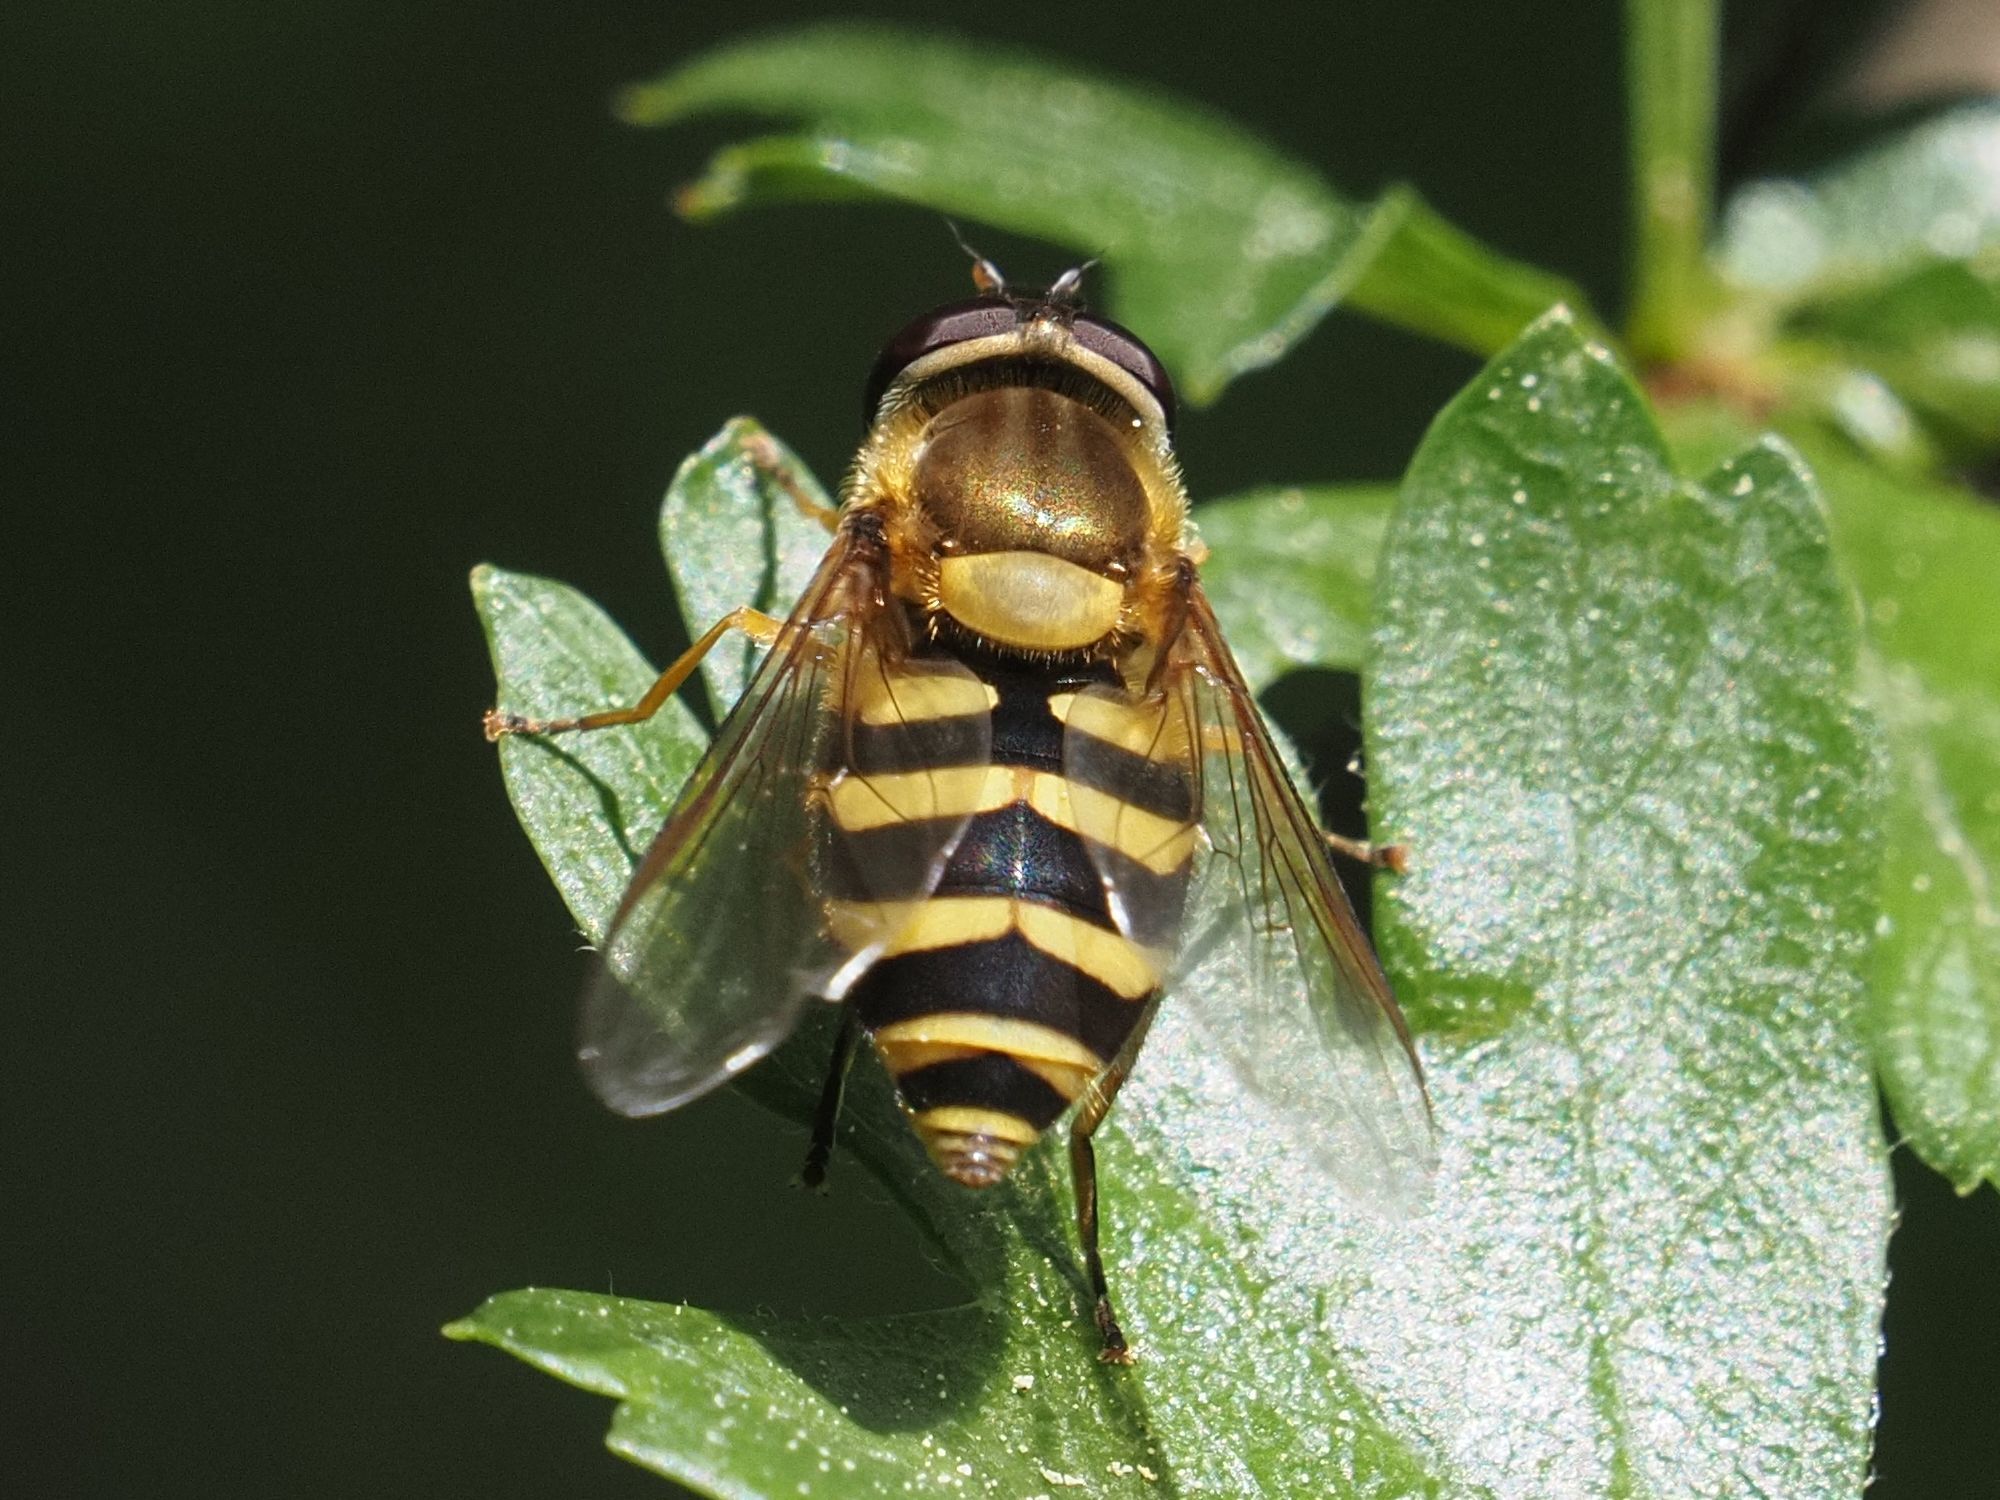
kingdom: Animalia
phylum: Arthropoda
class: Insecta
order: Diptera
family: Syrphidae
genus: Syrphus
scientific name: Syrphus
